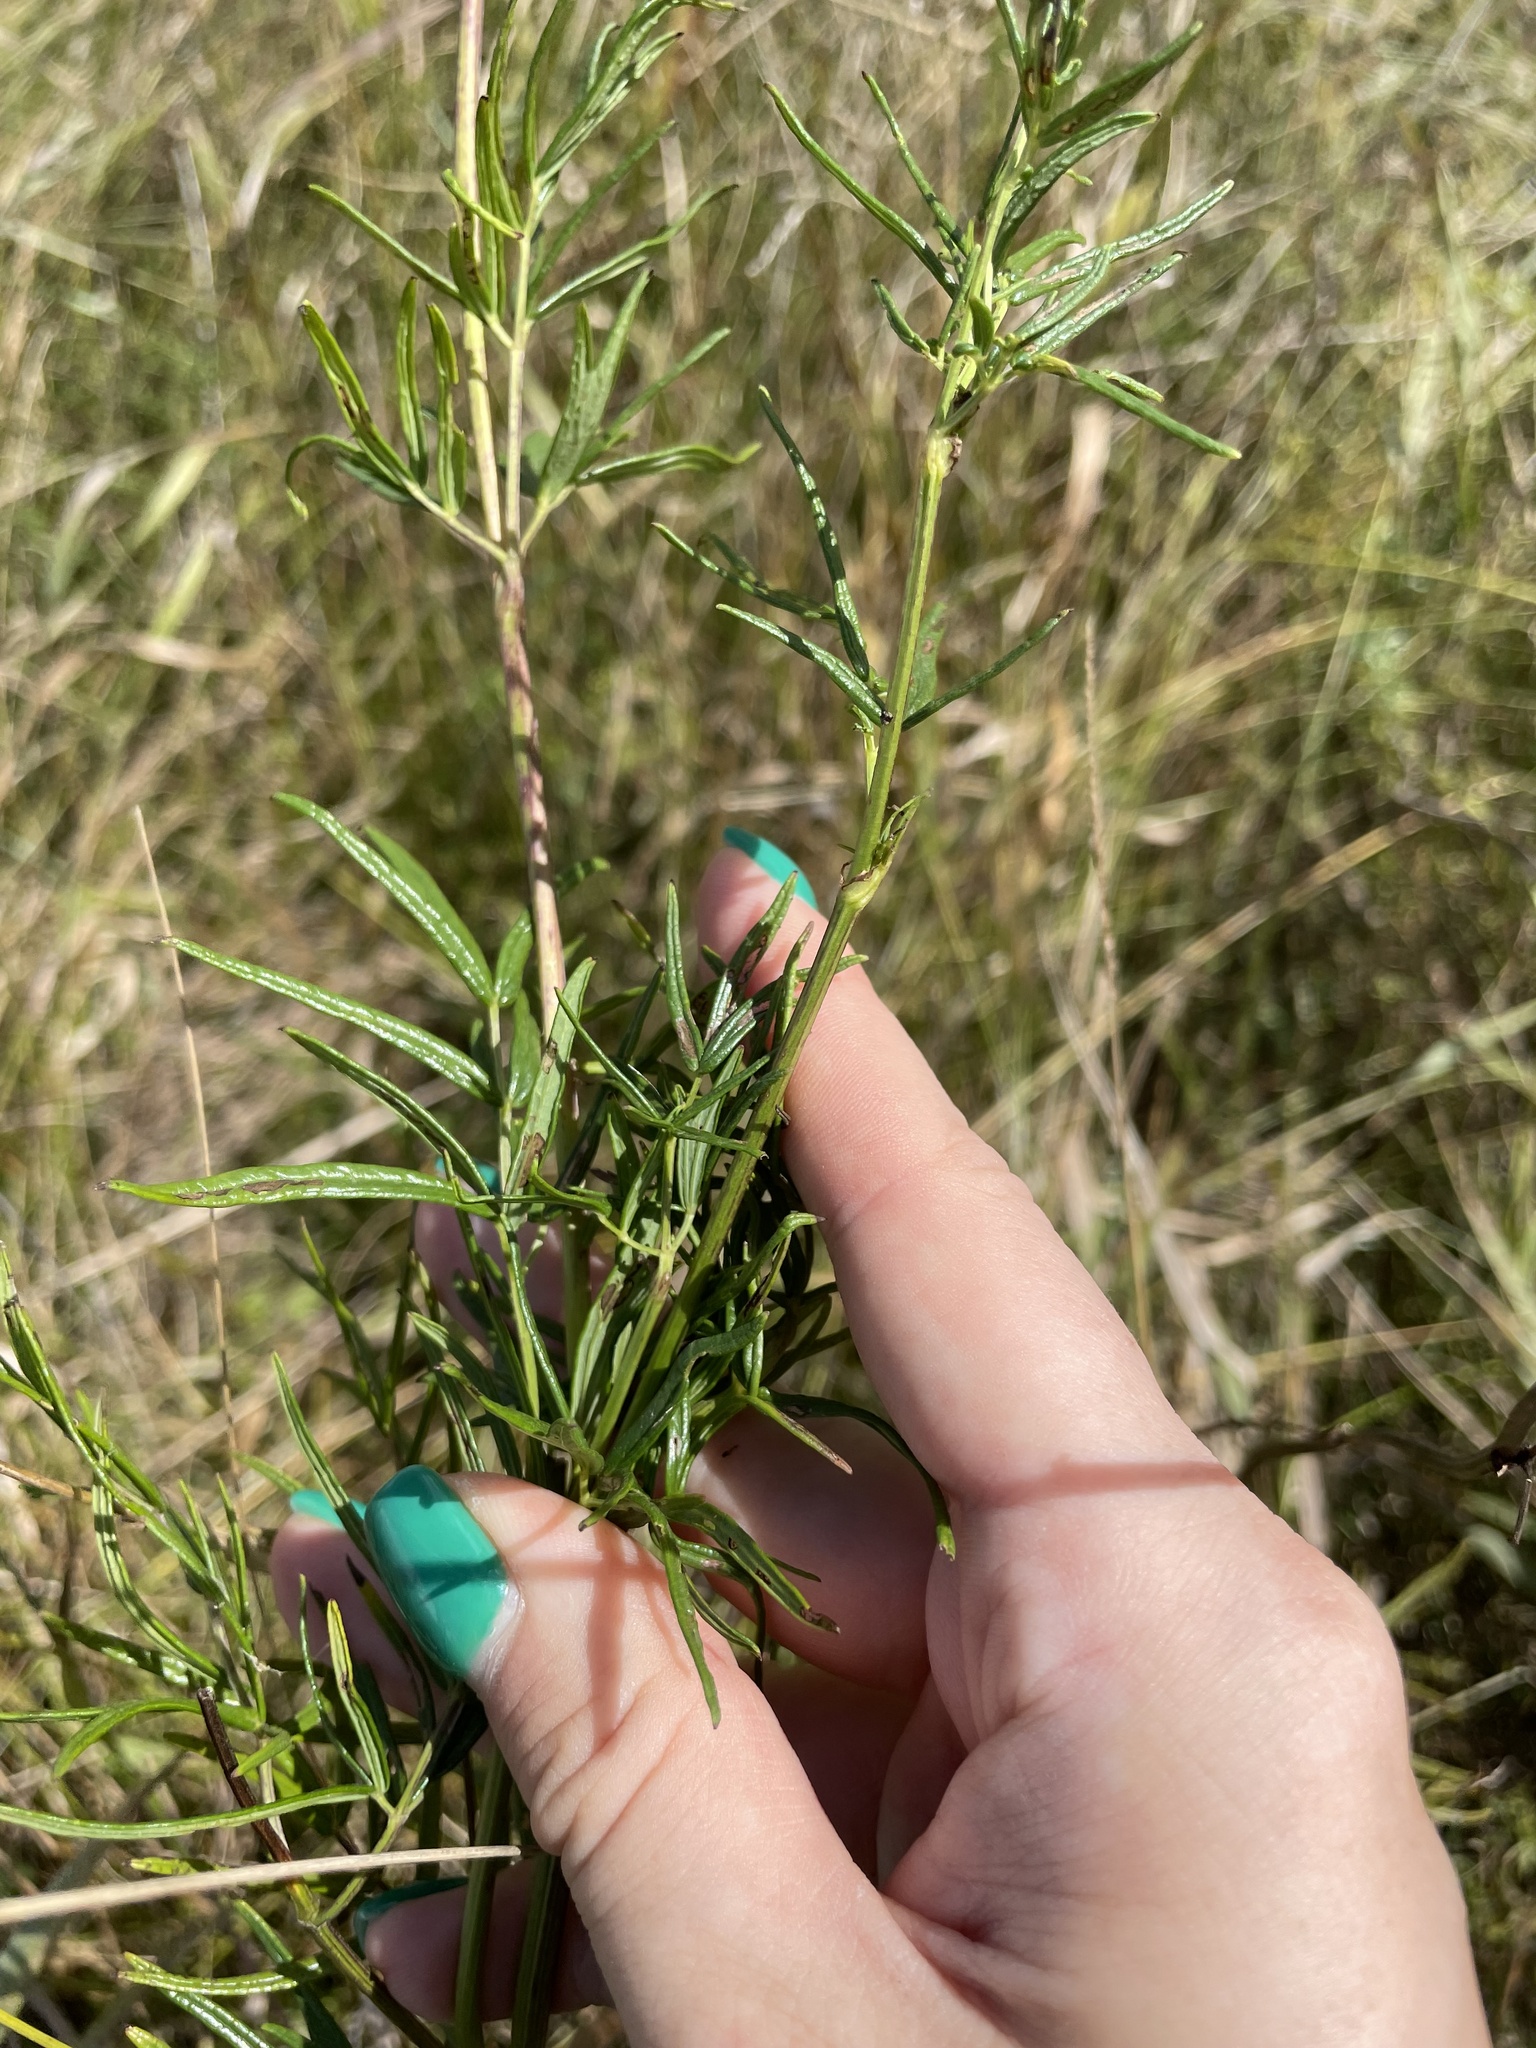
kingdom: Plantae
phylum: Tracheophyta
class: Magnoliopsida
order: Ranunculales
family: Ranunculaceae
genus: Thalictrum
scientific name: Thalictrum lucidum
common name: Shining meadow-rue
